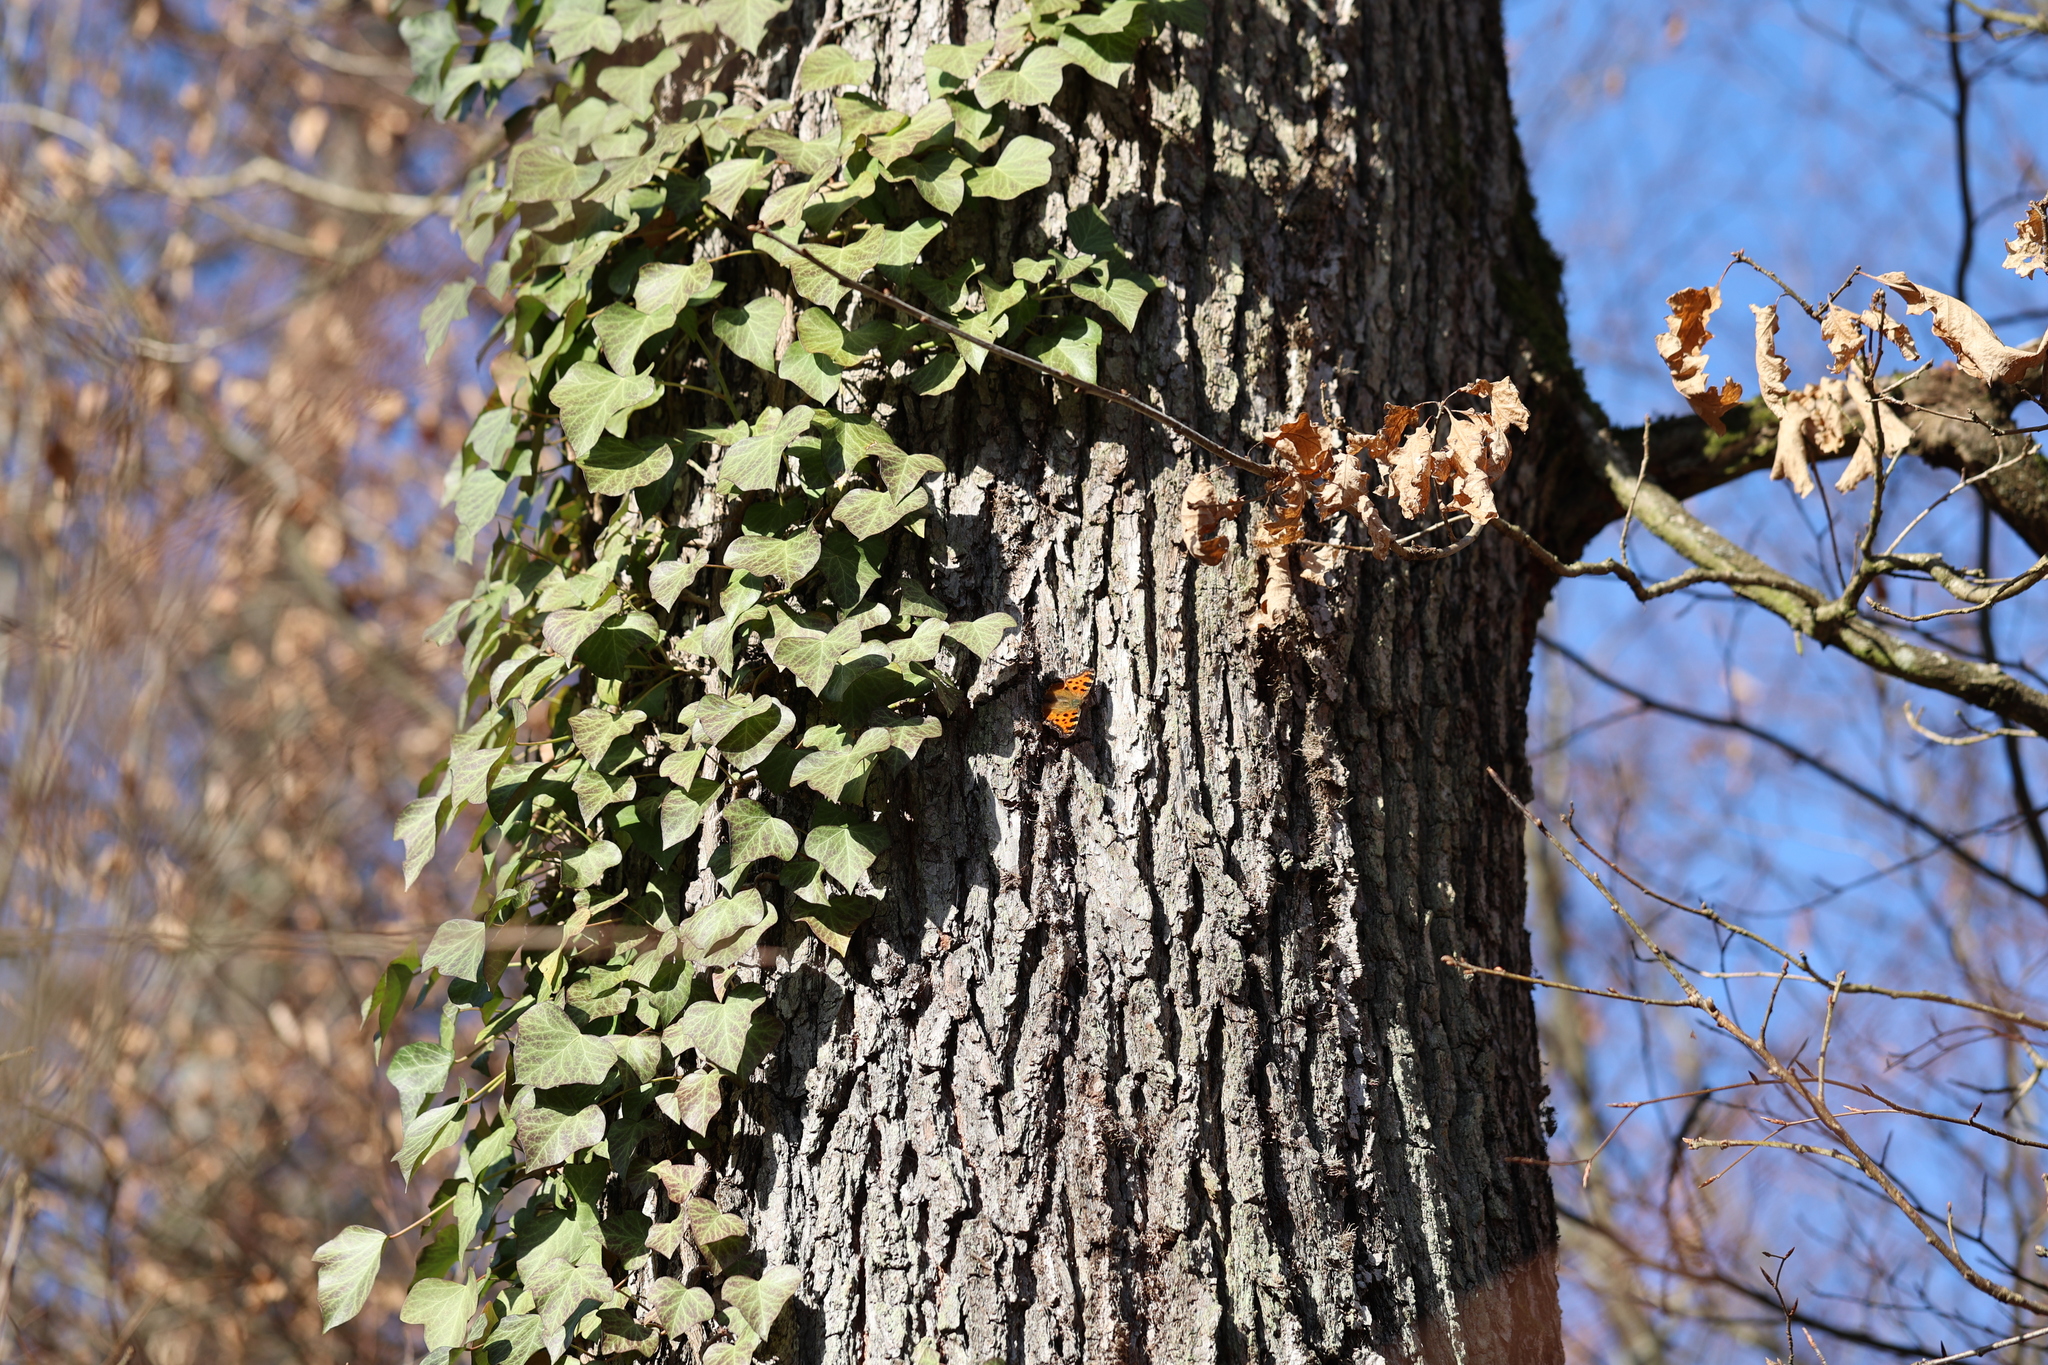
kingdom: Animalia
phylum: Arthropoda
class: Insecta
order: Lepidoptera
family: Nymphalidae
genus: Nymphalis
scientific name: Nymphalis polychloros
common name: Large tortoiseshell
